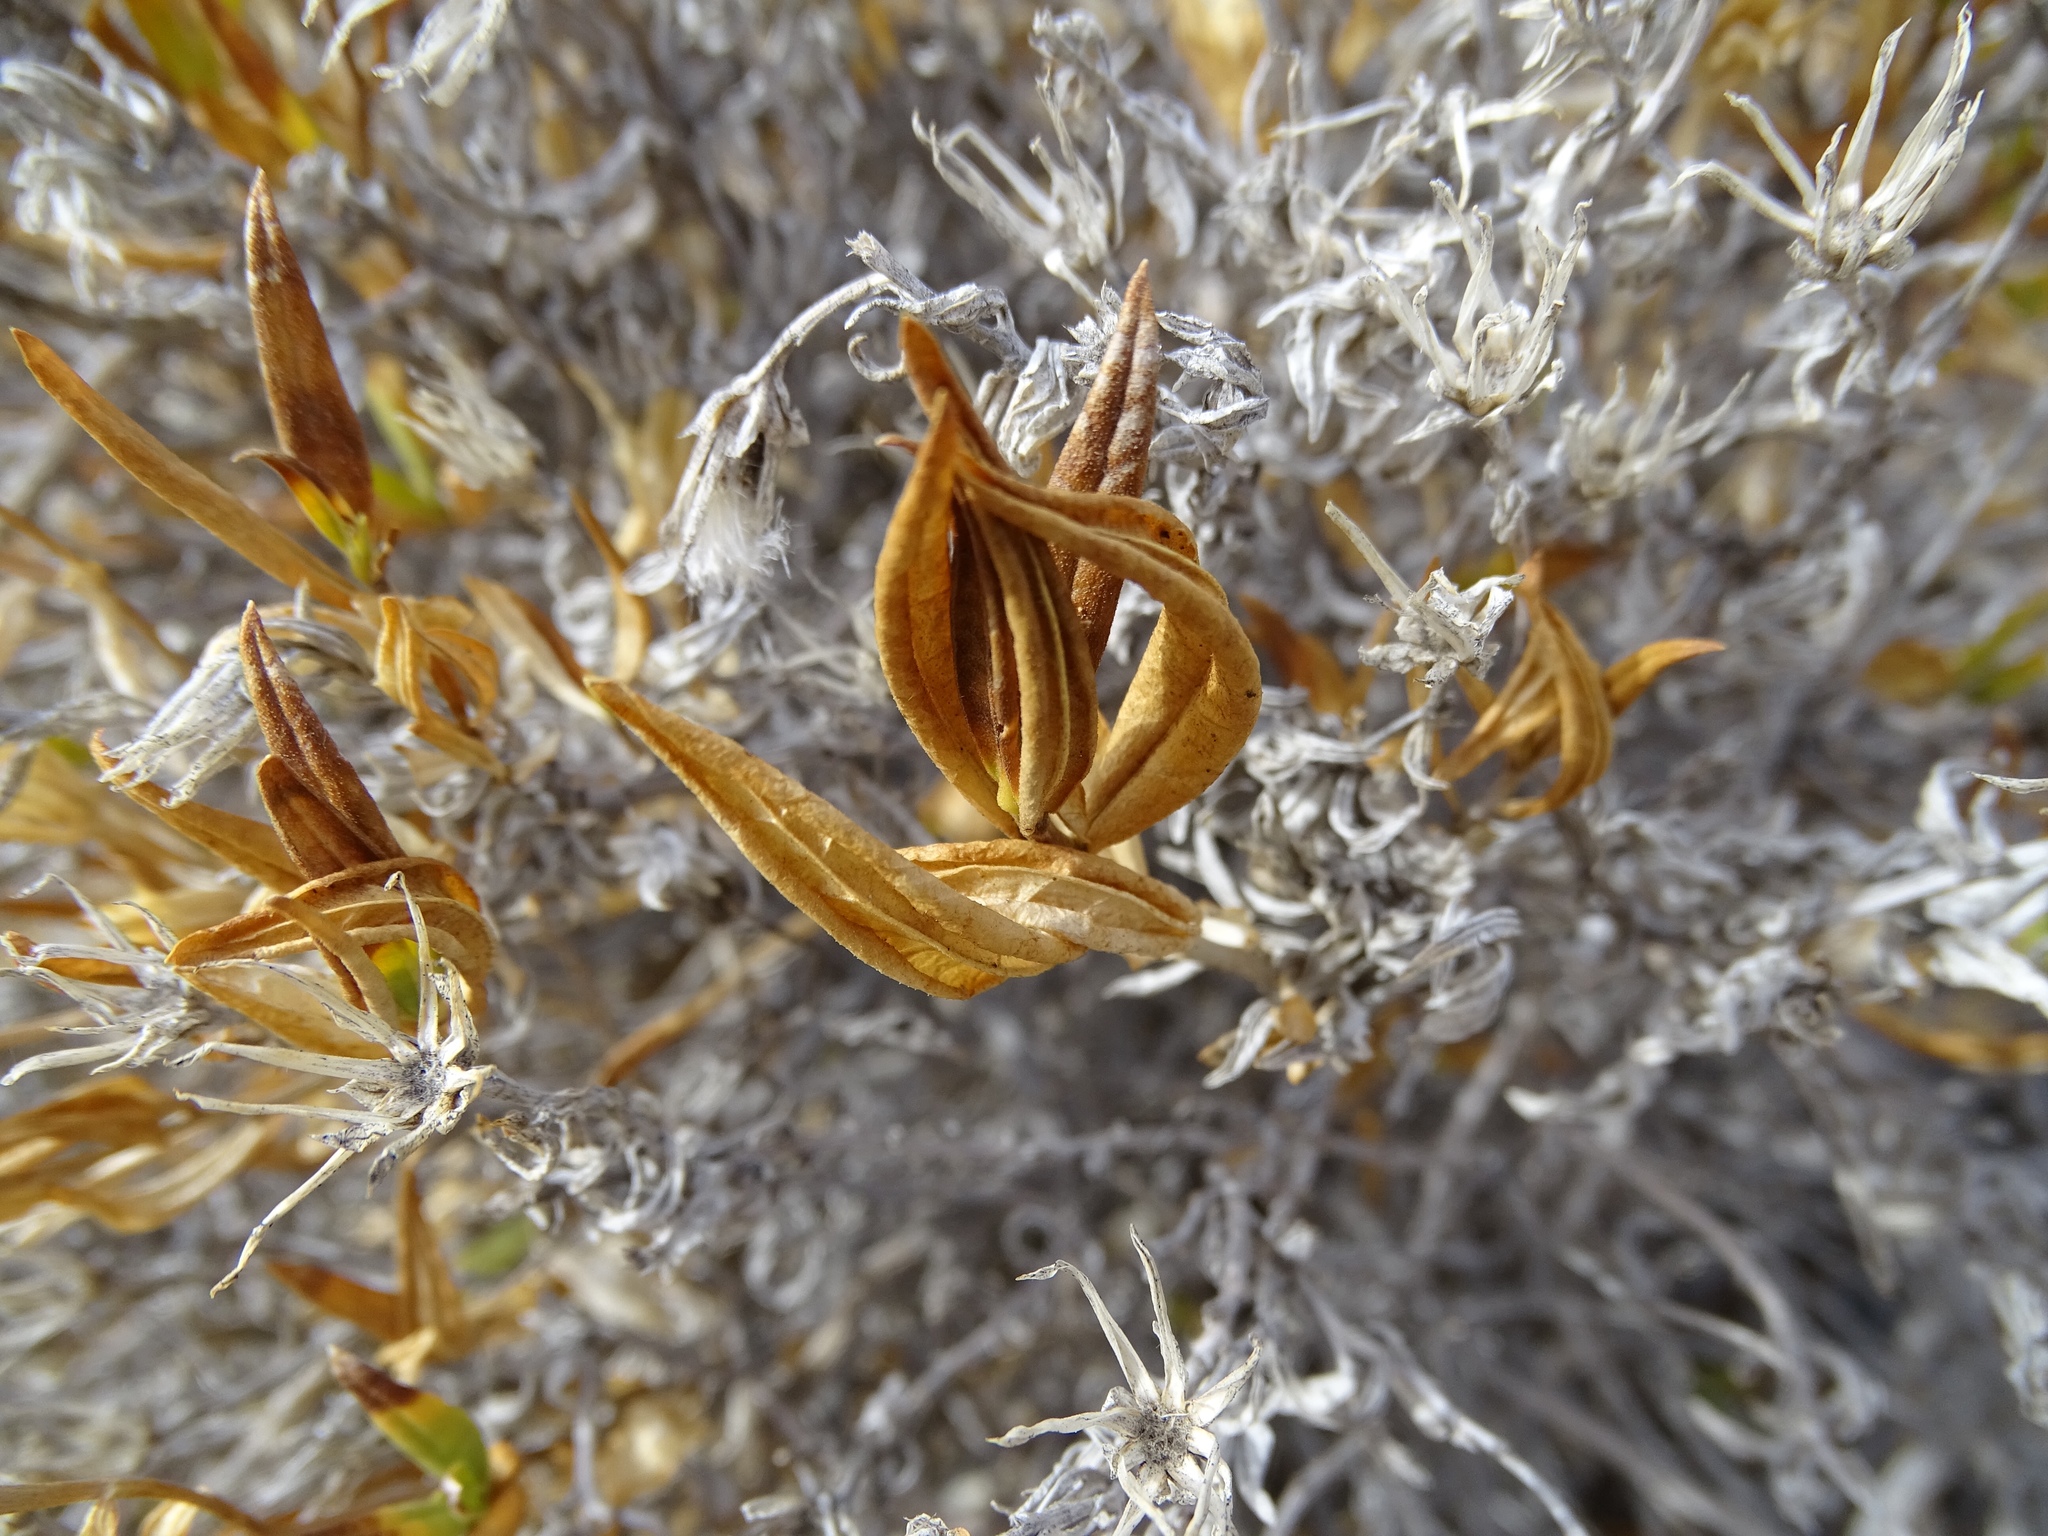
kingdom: Plantae
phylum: Tracheophyta
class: Magnoliopsida
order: Asterales
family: Asteraceae
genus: Trixis
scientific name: Trixis californica
